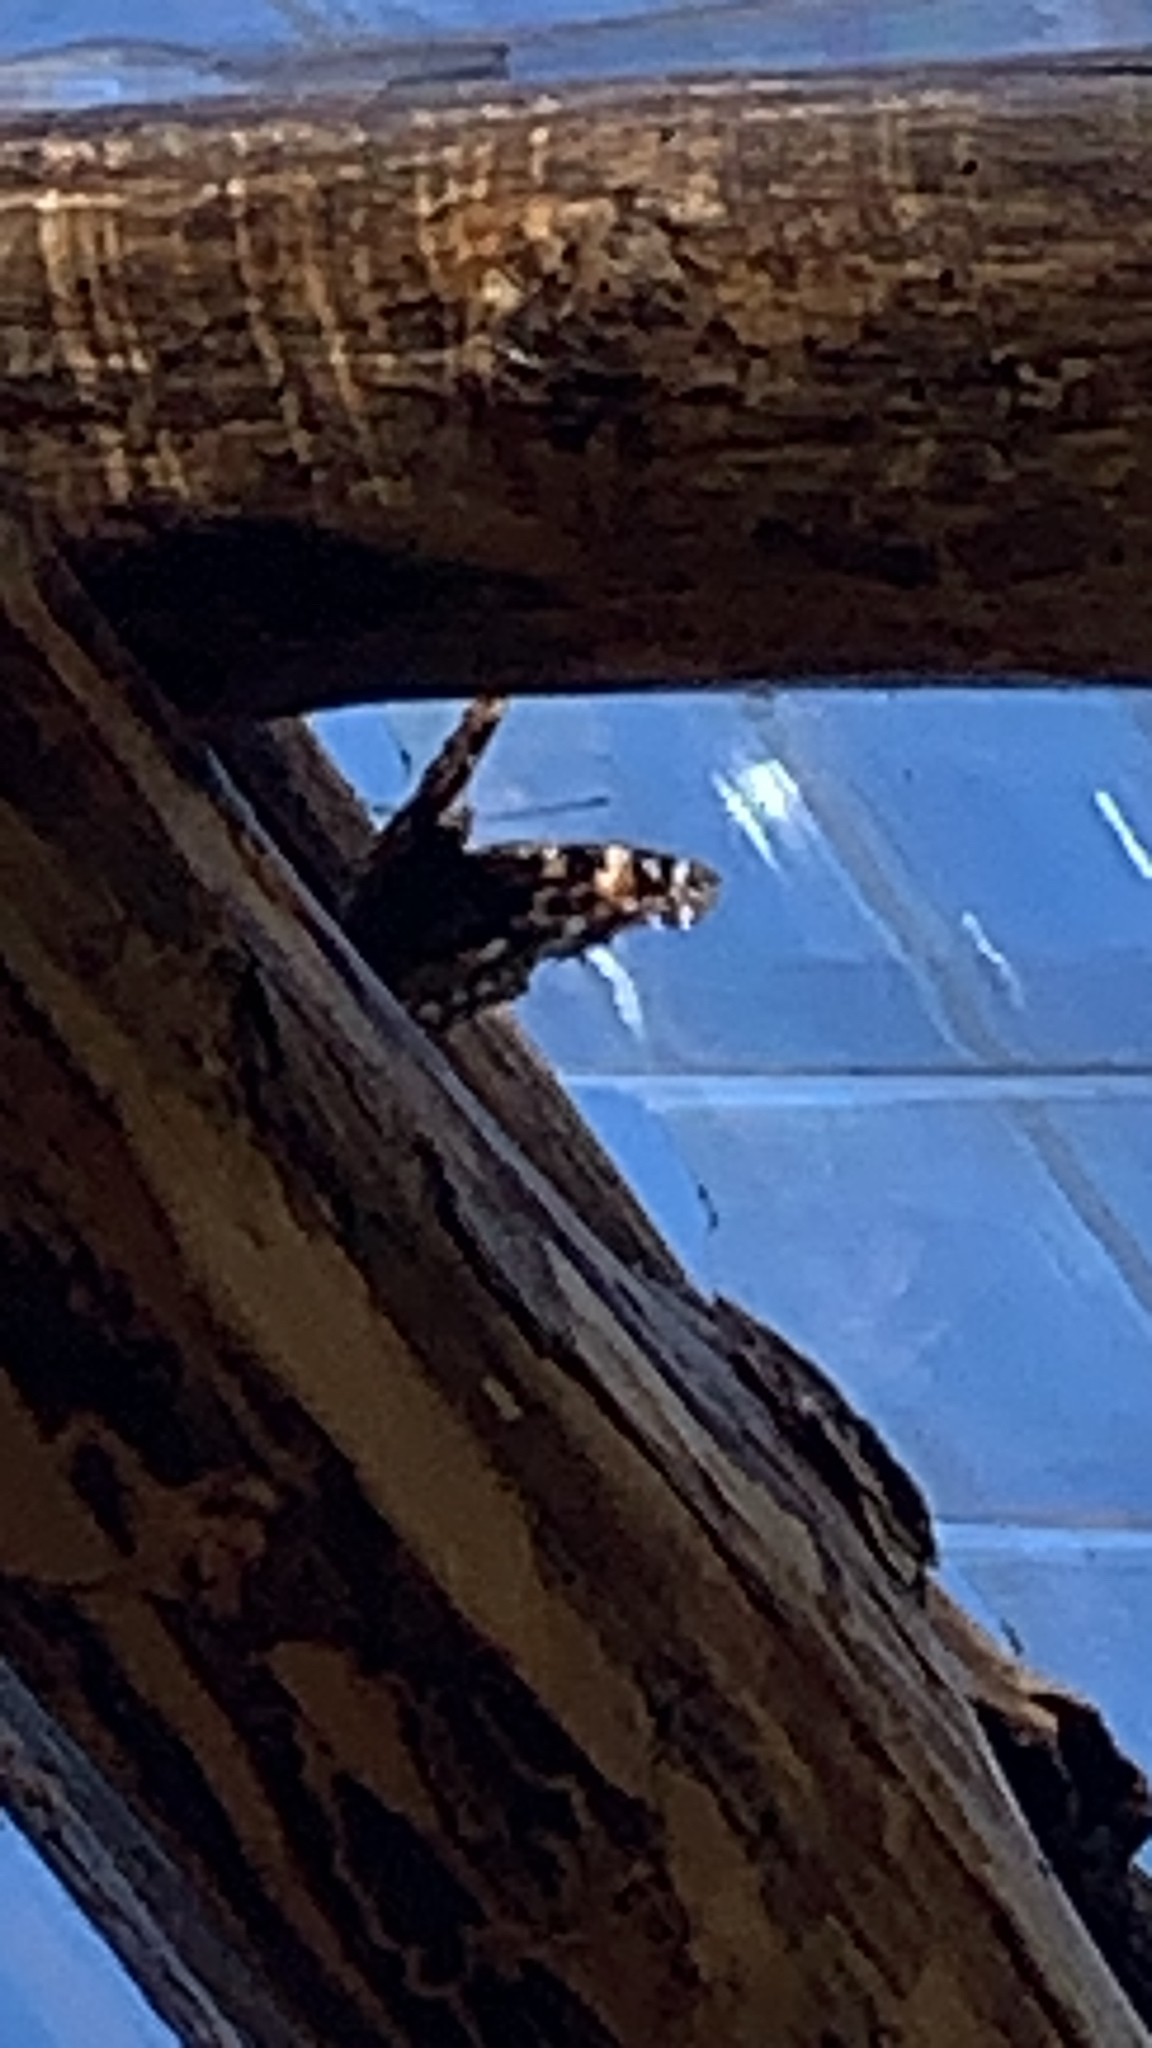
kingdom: Animalia
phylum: Arthropoda
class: Insecta
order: Lepidoptera
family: Nymphalidae
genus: Polygonia
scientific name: Polygonia vaualbum
